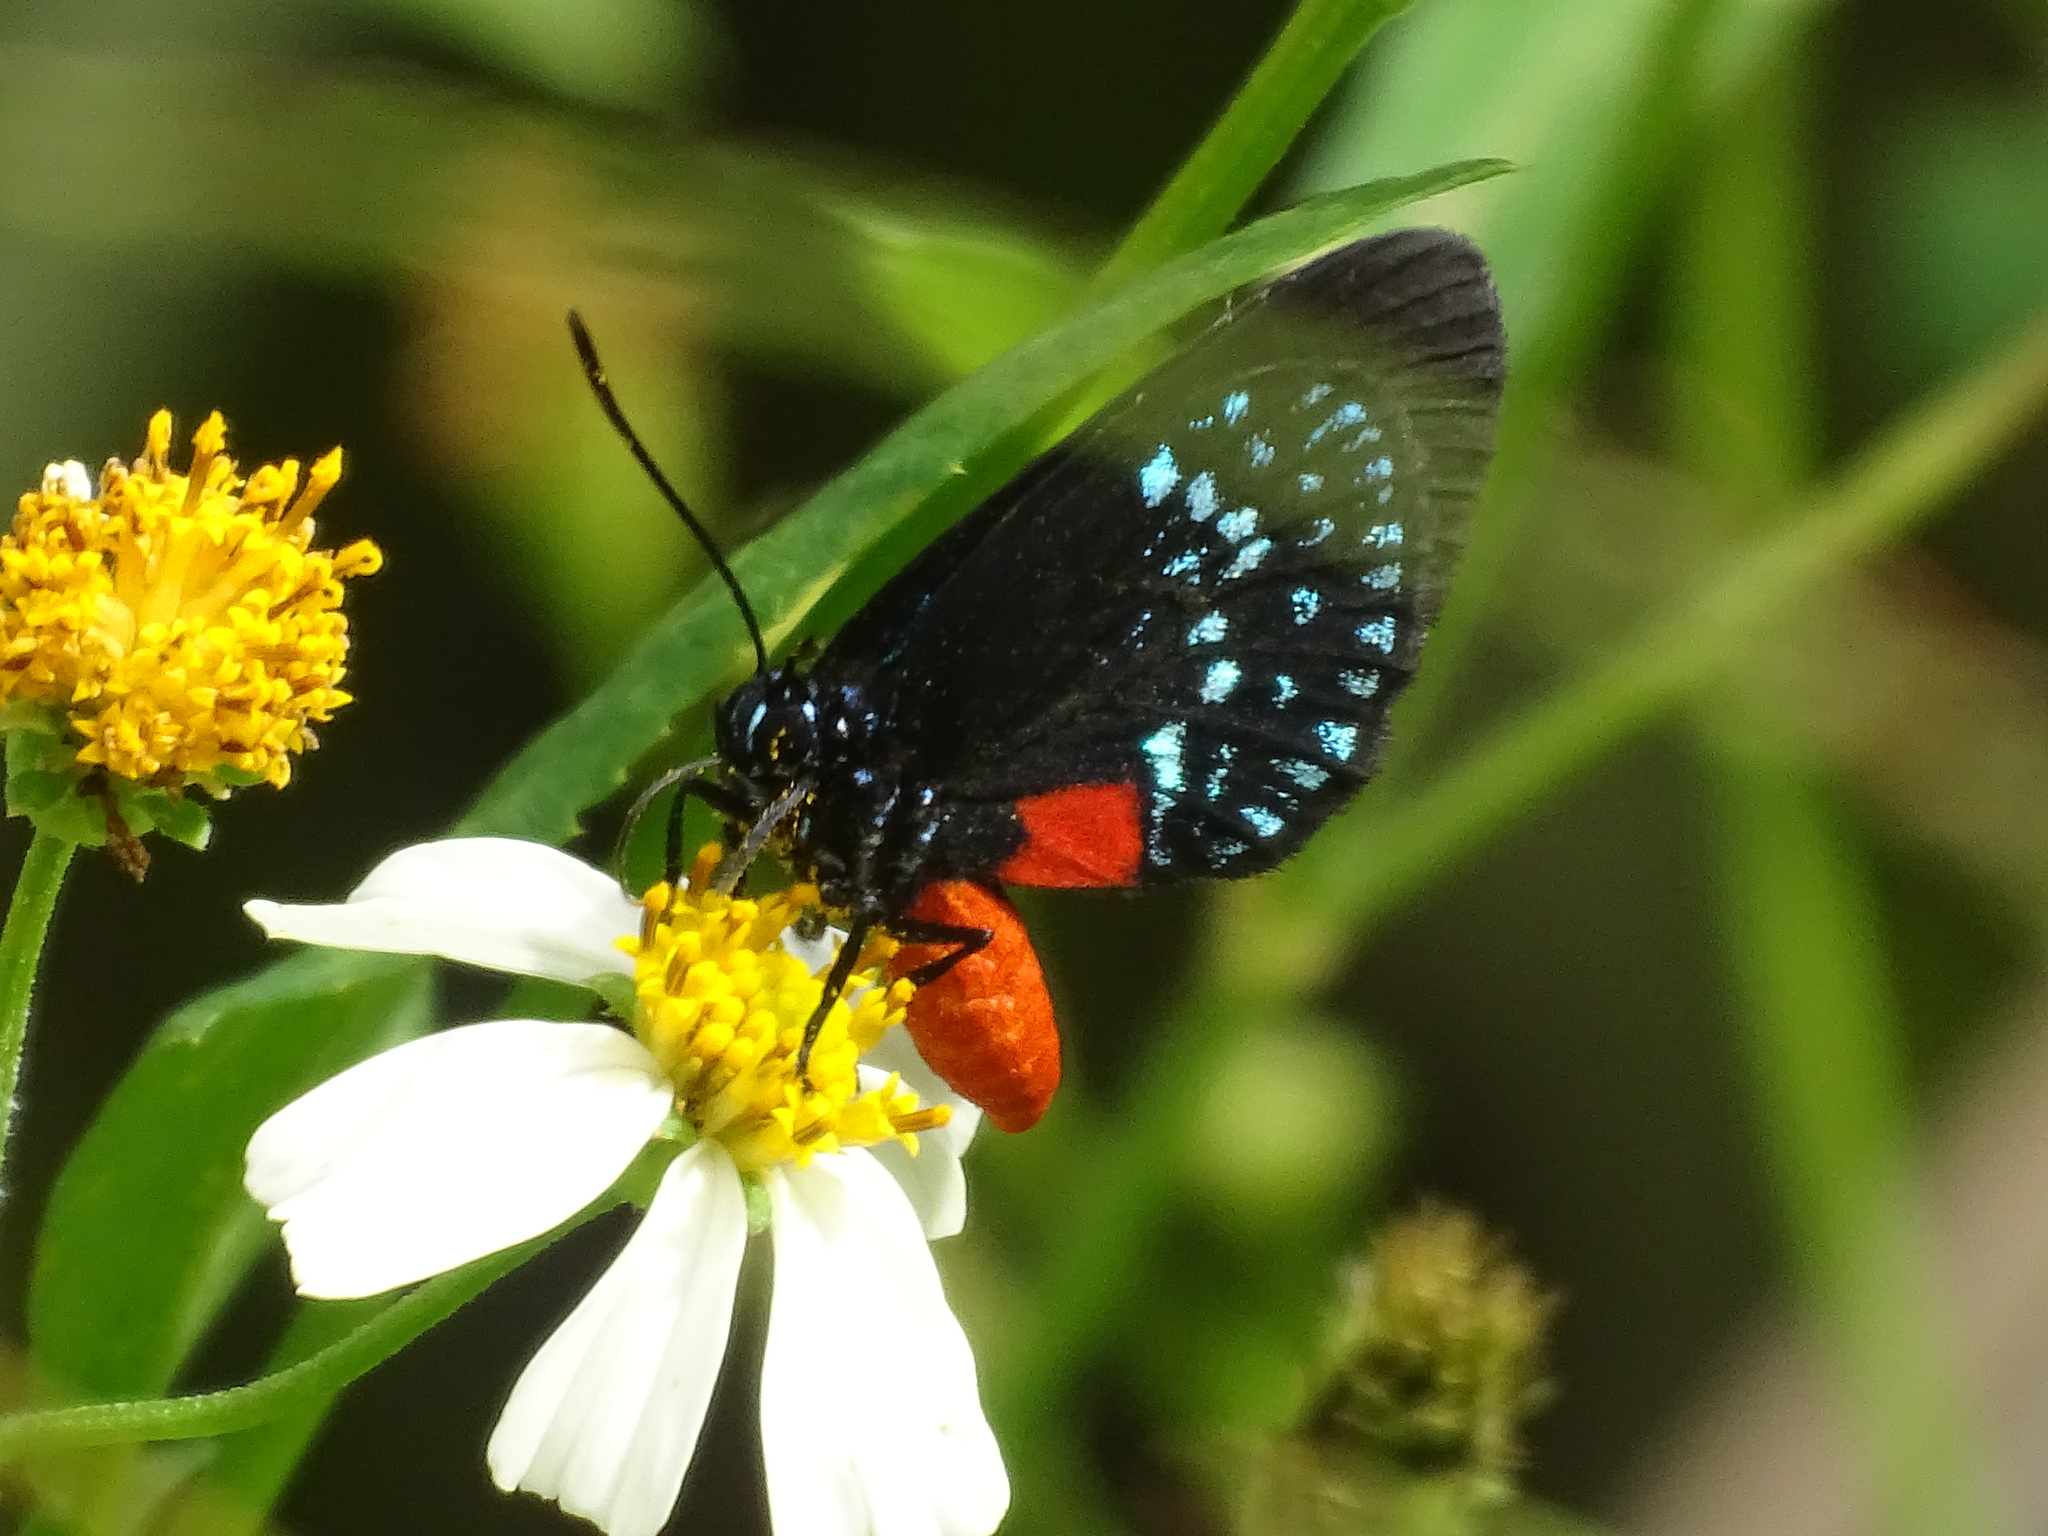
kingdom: Animalia
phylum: Arthropoda
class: Insecta
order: Lepidoptera
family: Lycaenidae
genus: Eumaeus
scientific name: Eumaeus atala
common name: Atala
